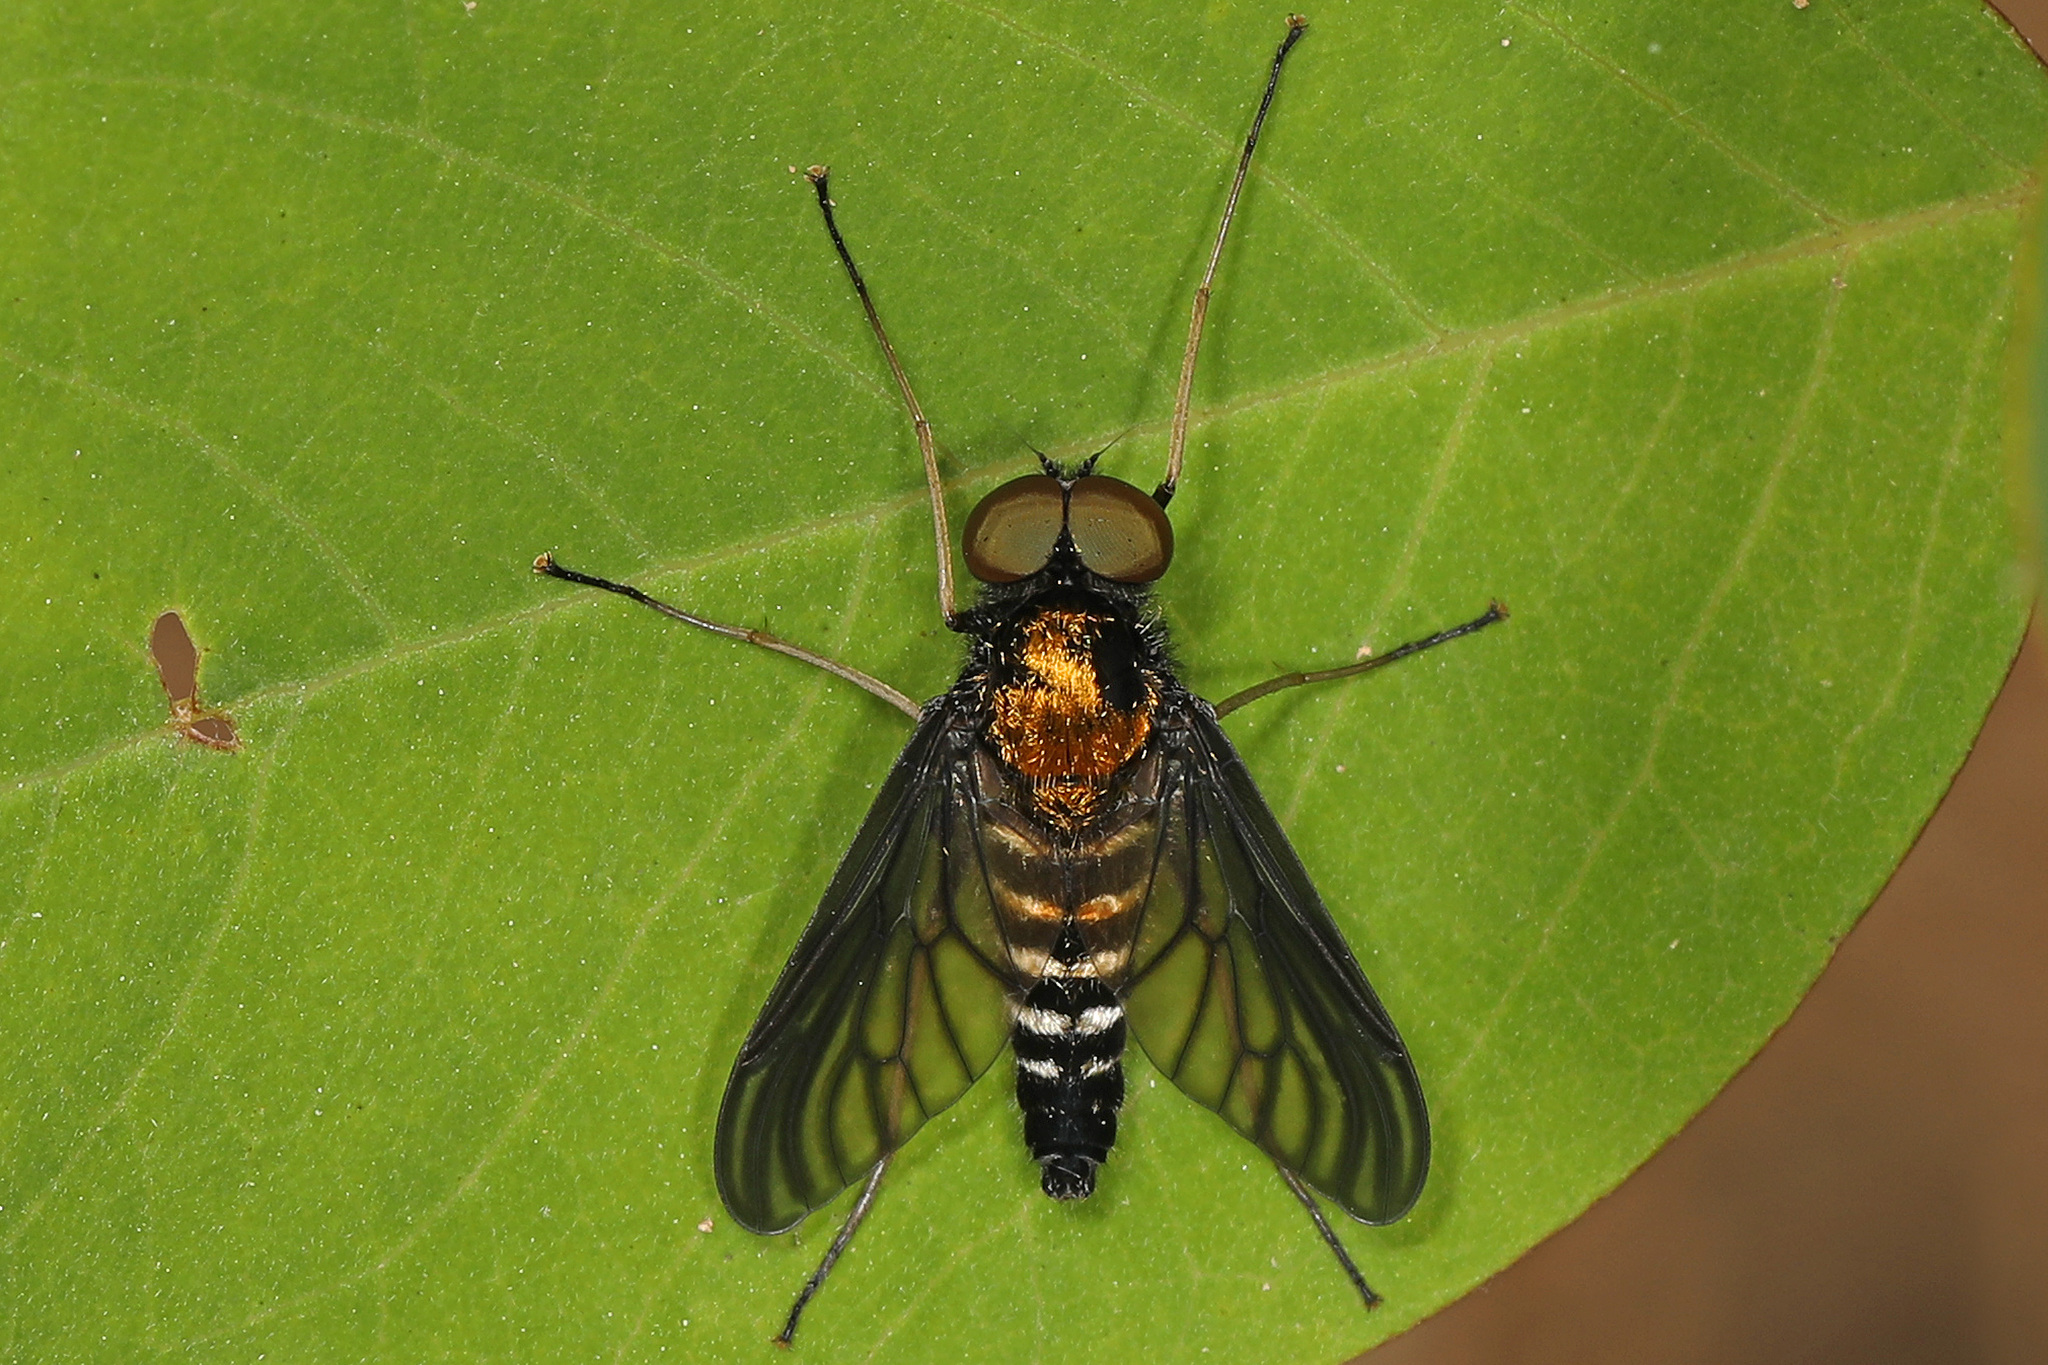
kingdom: Animalia
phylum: Arthropoda
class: Insecta
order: Diptera
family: Rhagionidae
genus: Chrysopilus
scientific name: Chrysopilus thoracicus
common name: Golden-backed snipe fly
